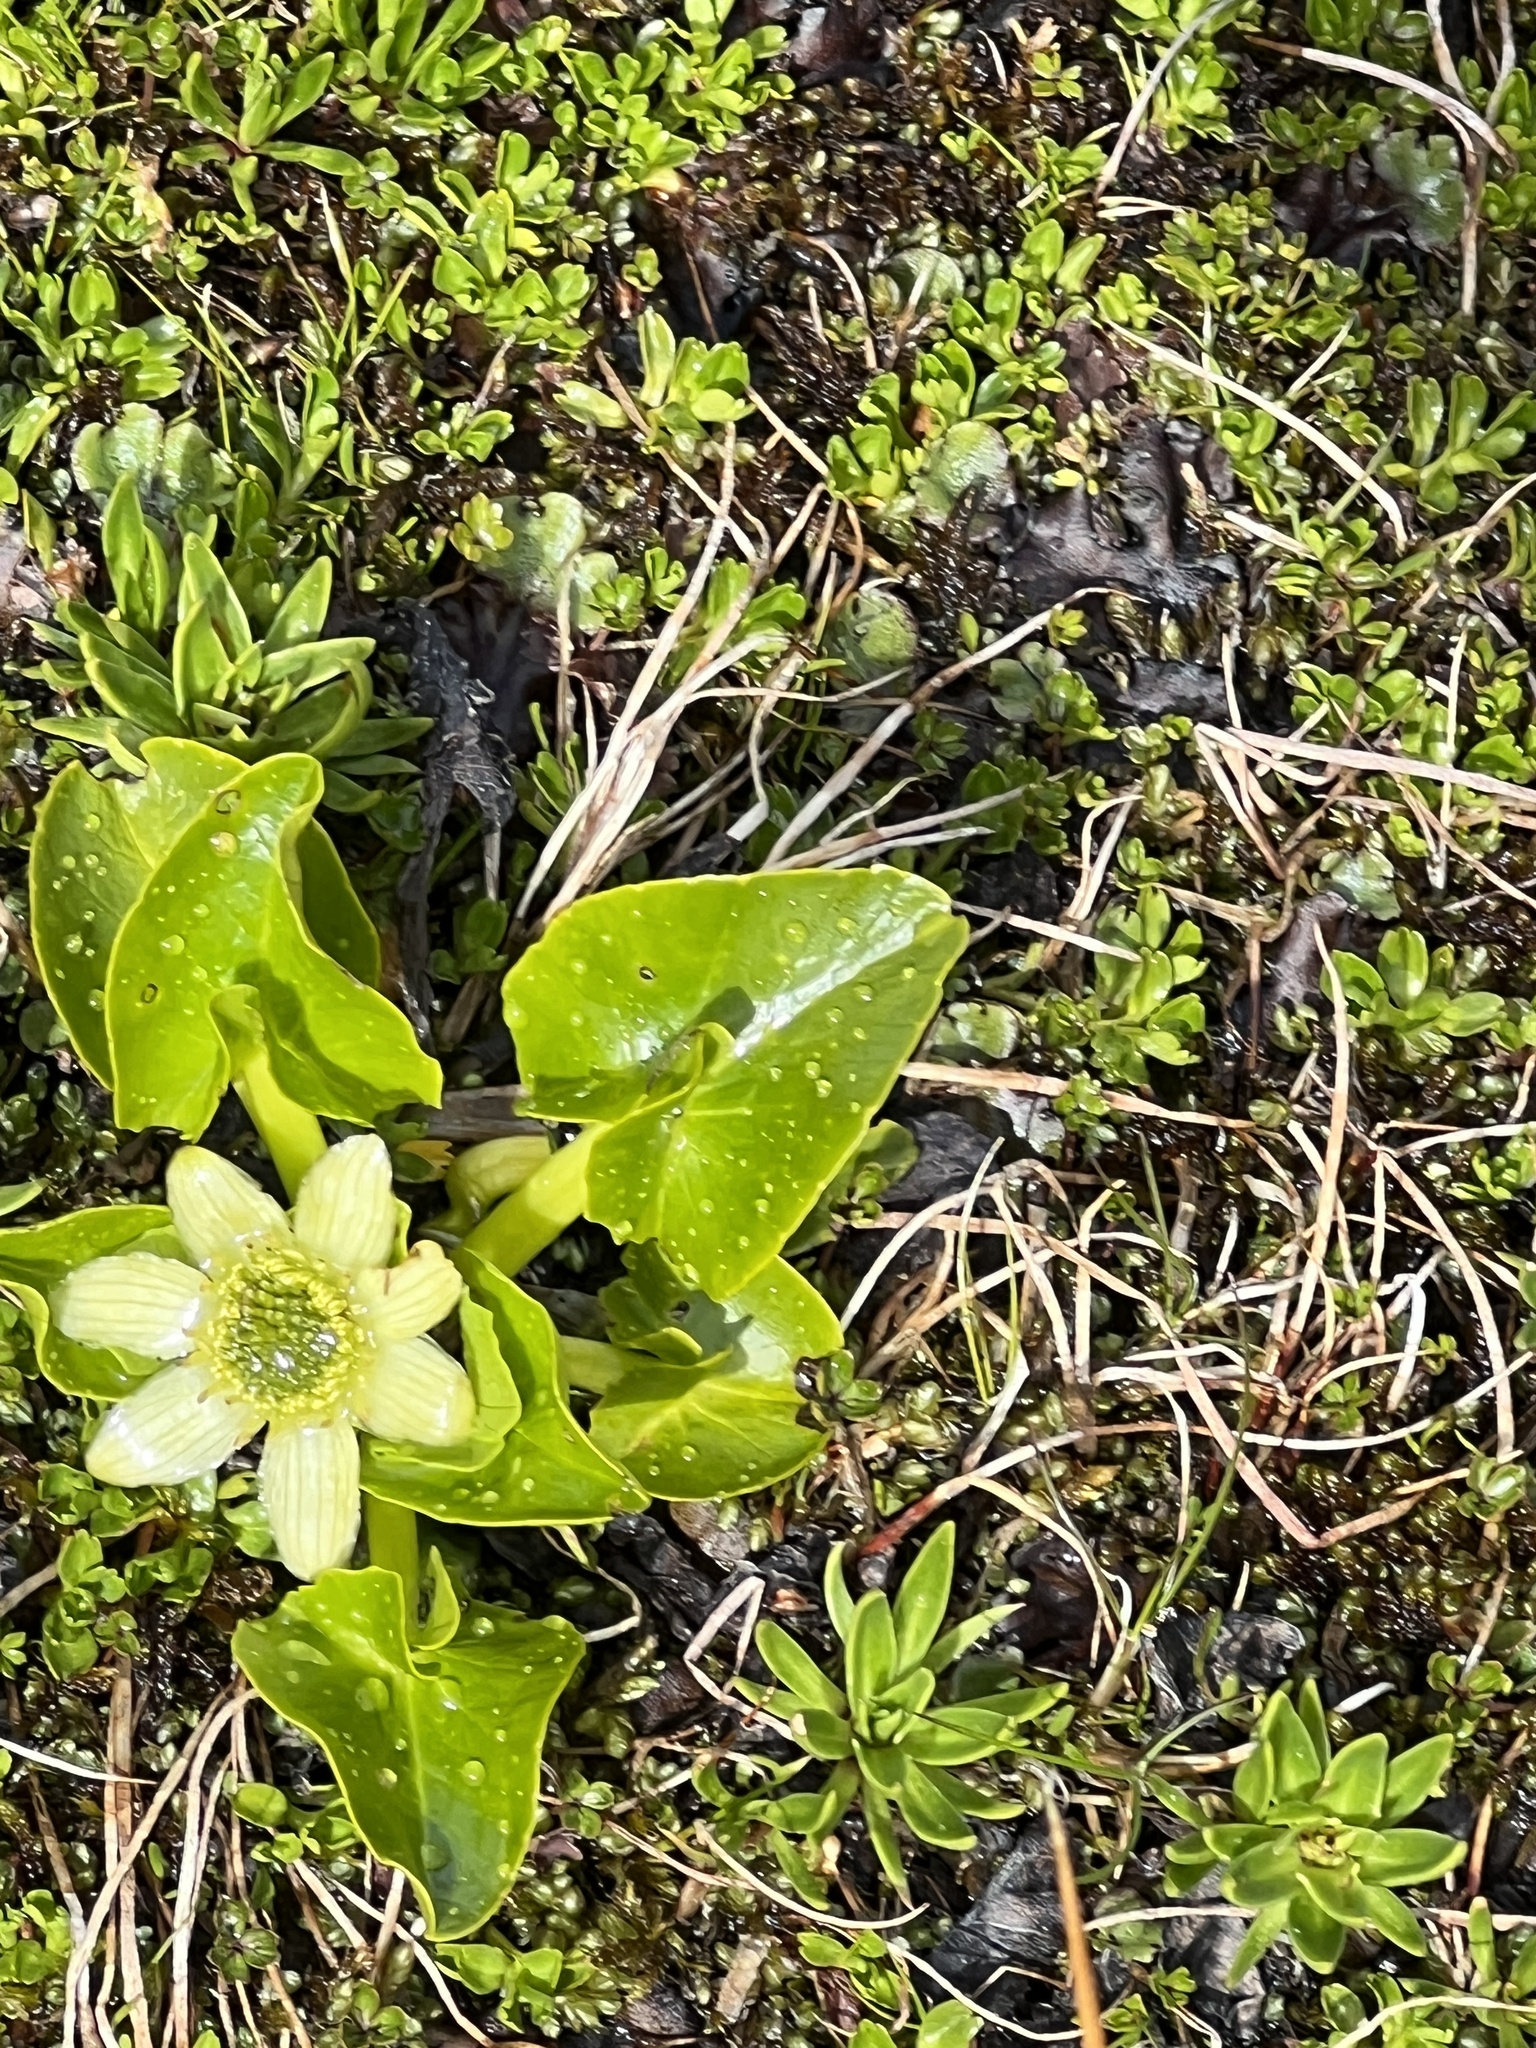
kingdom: Plantae
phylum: Tracheophyta
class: Magnoliopsida
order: Ranunculales
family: Ranunculaceae
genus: Caltha
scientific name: Caltha sagittata
